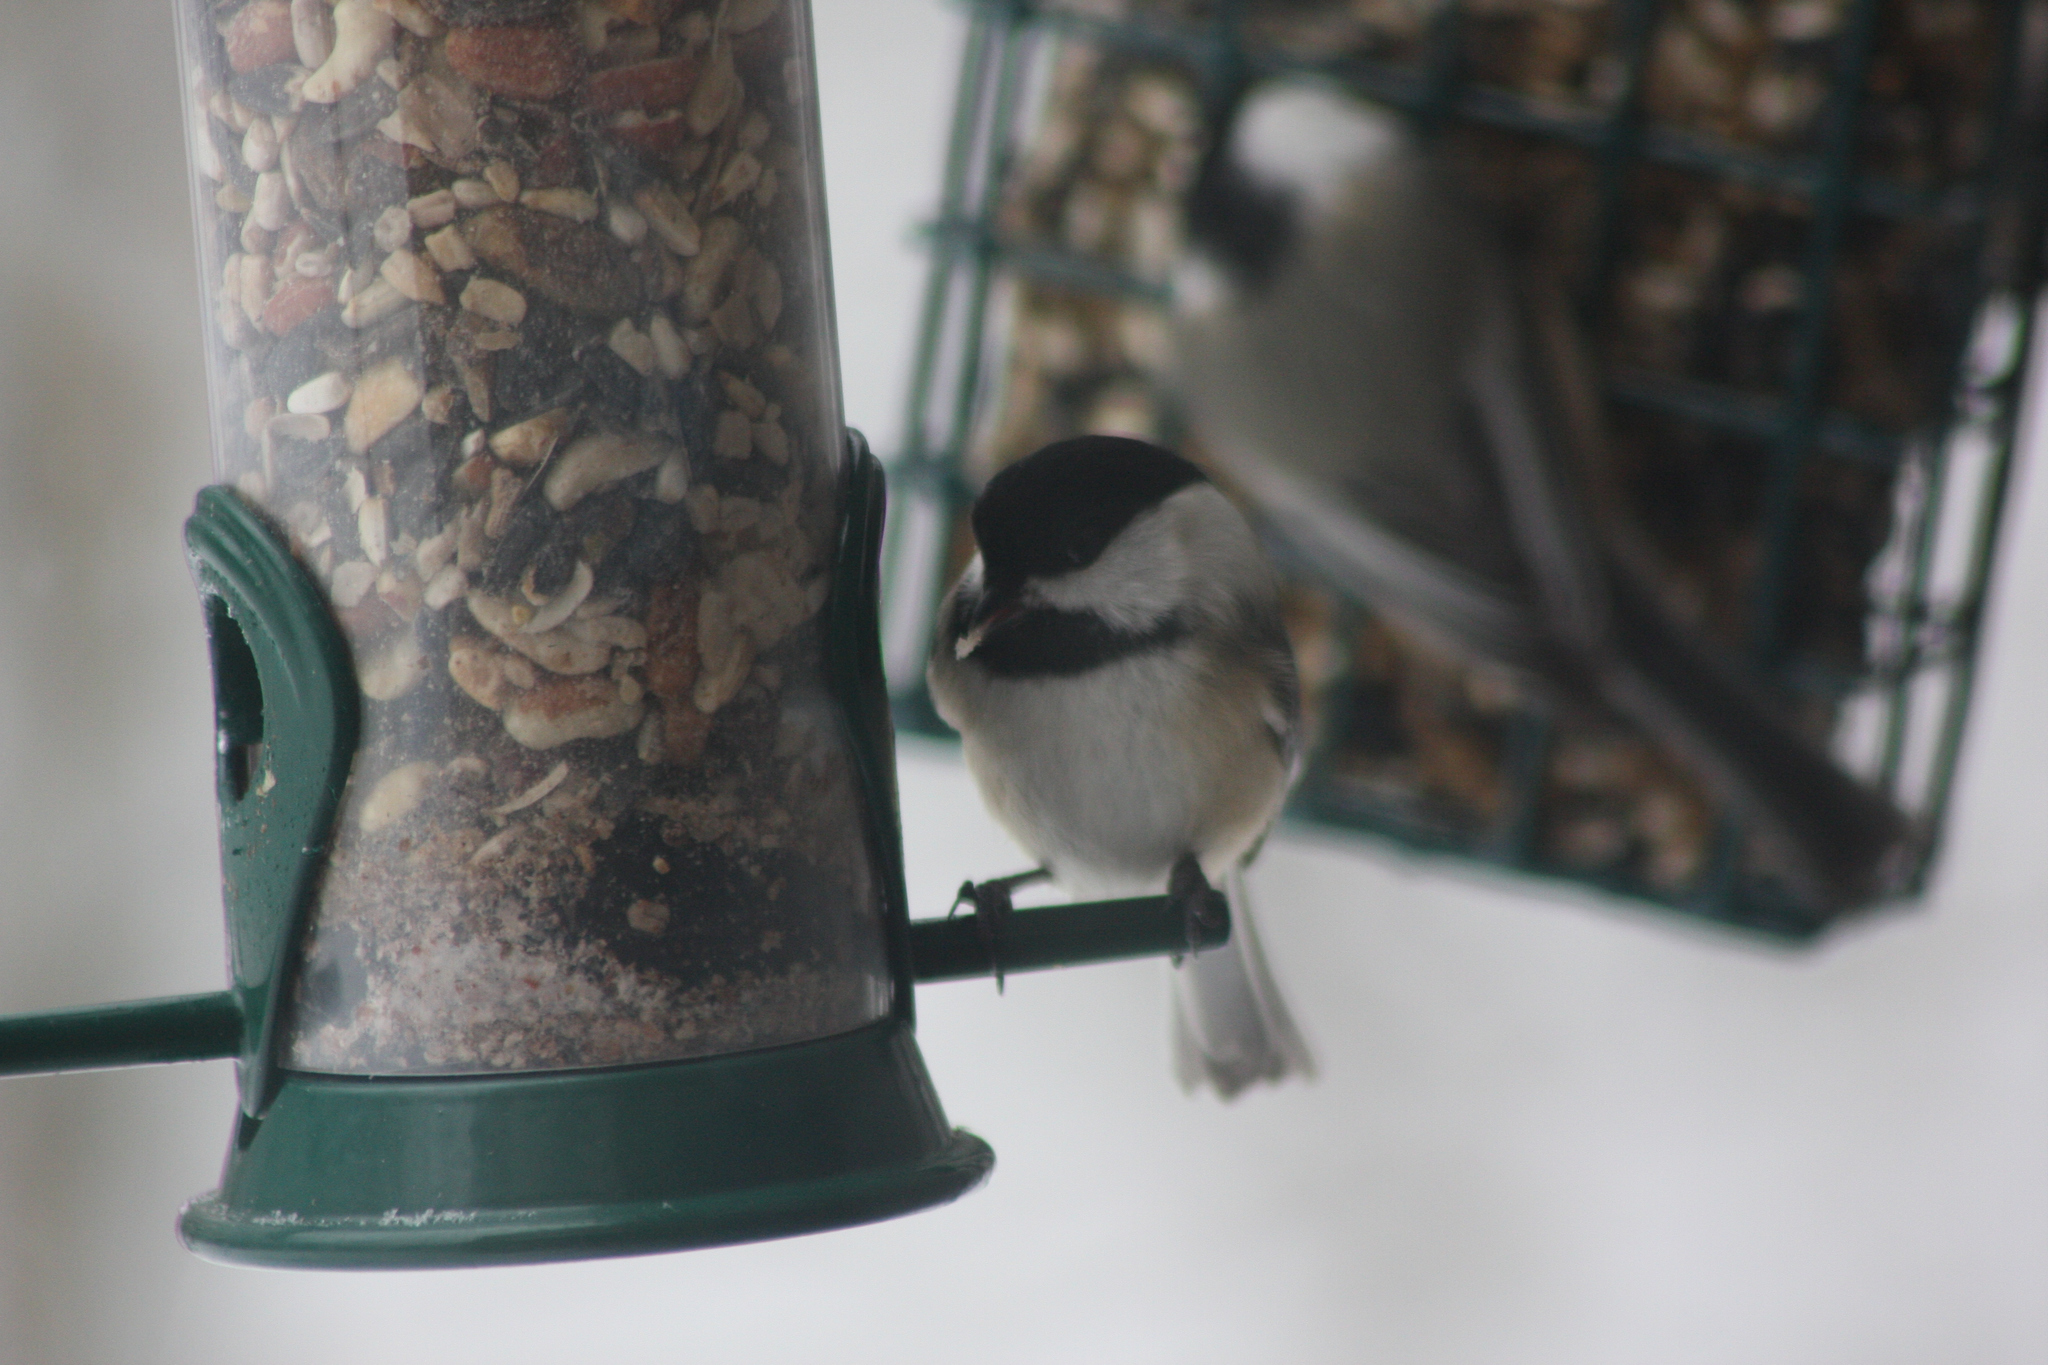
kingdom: Animalia
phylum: Chordata
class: Aves
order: Passeriformes
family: Paridae
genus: Poecile
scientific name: Poecile atricapillus
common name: Black-capped chickadee
